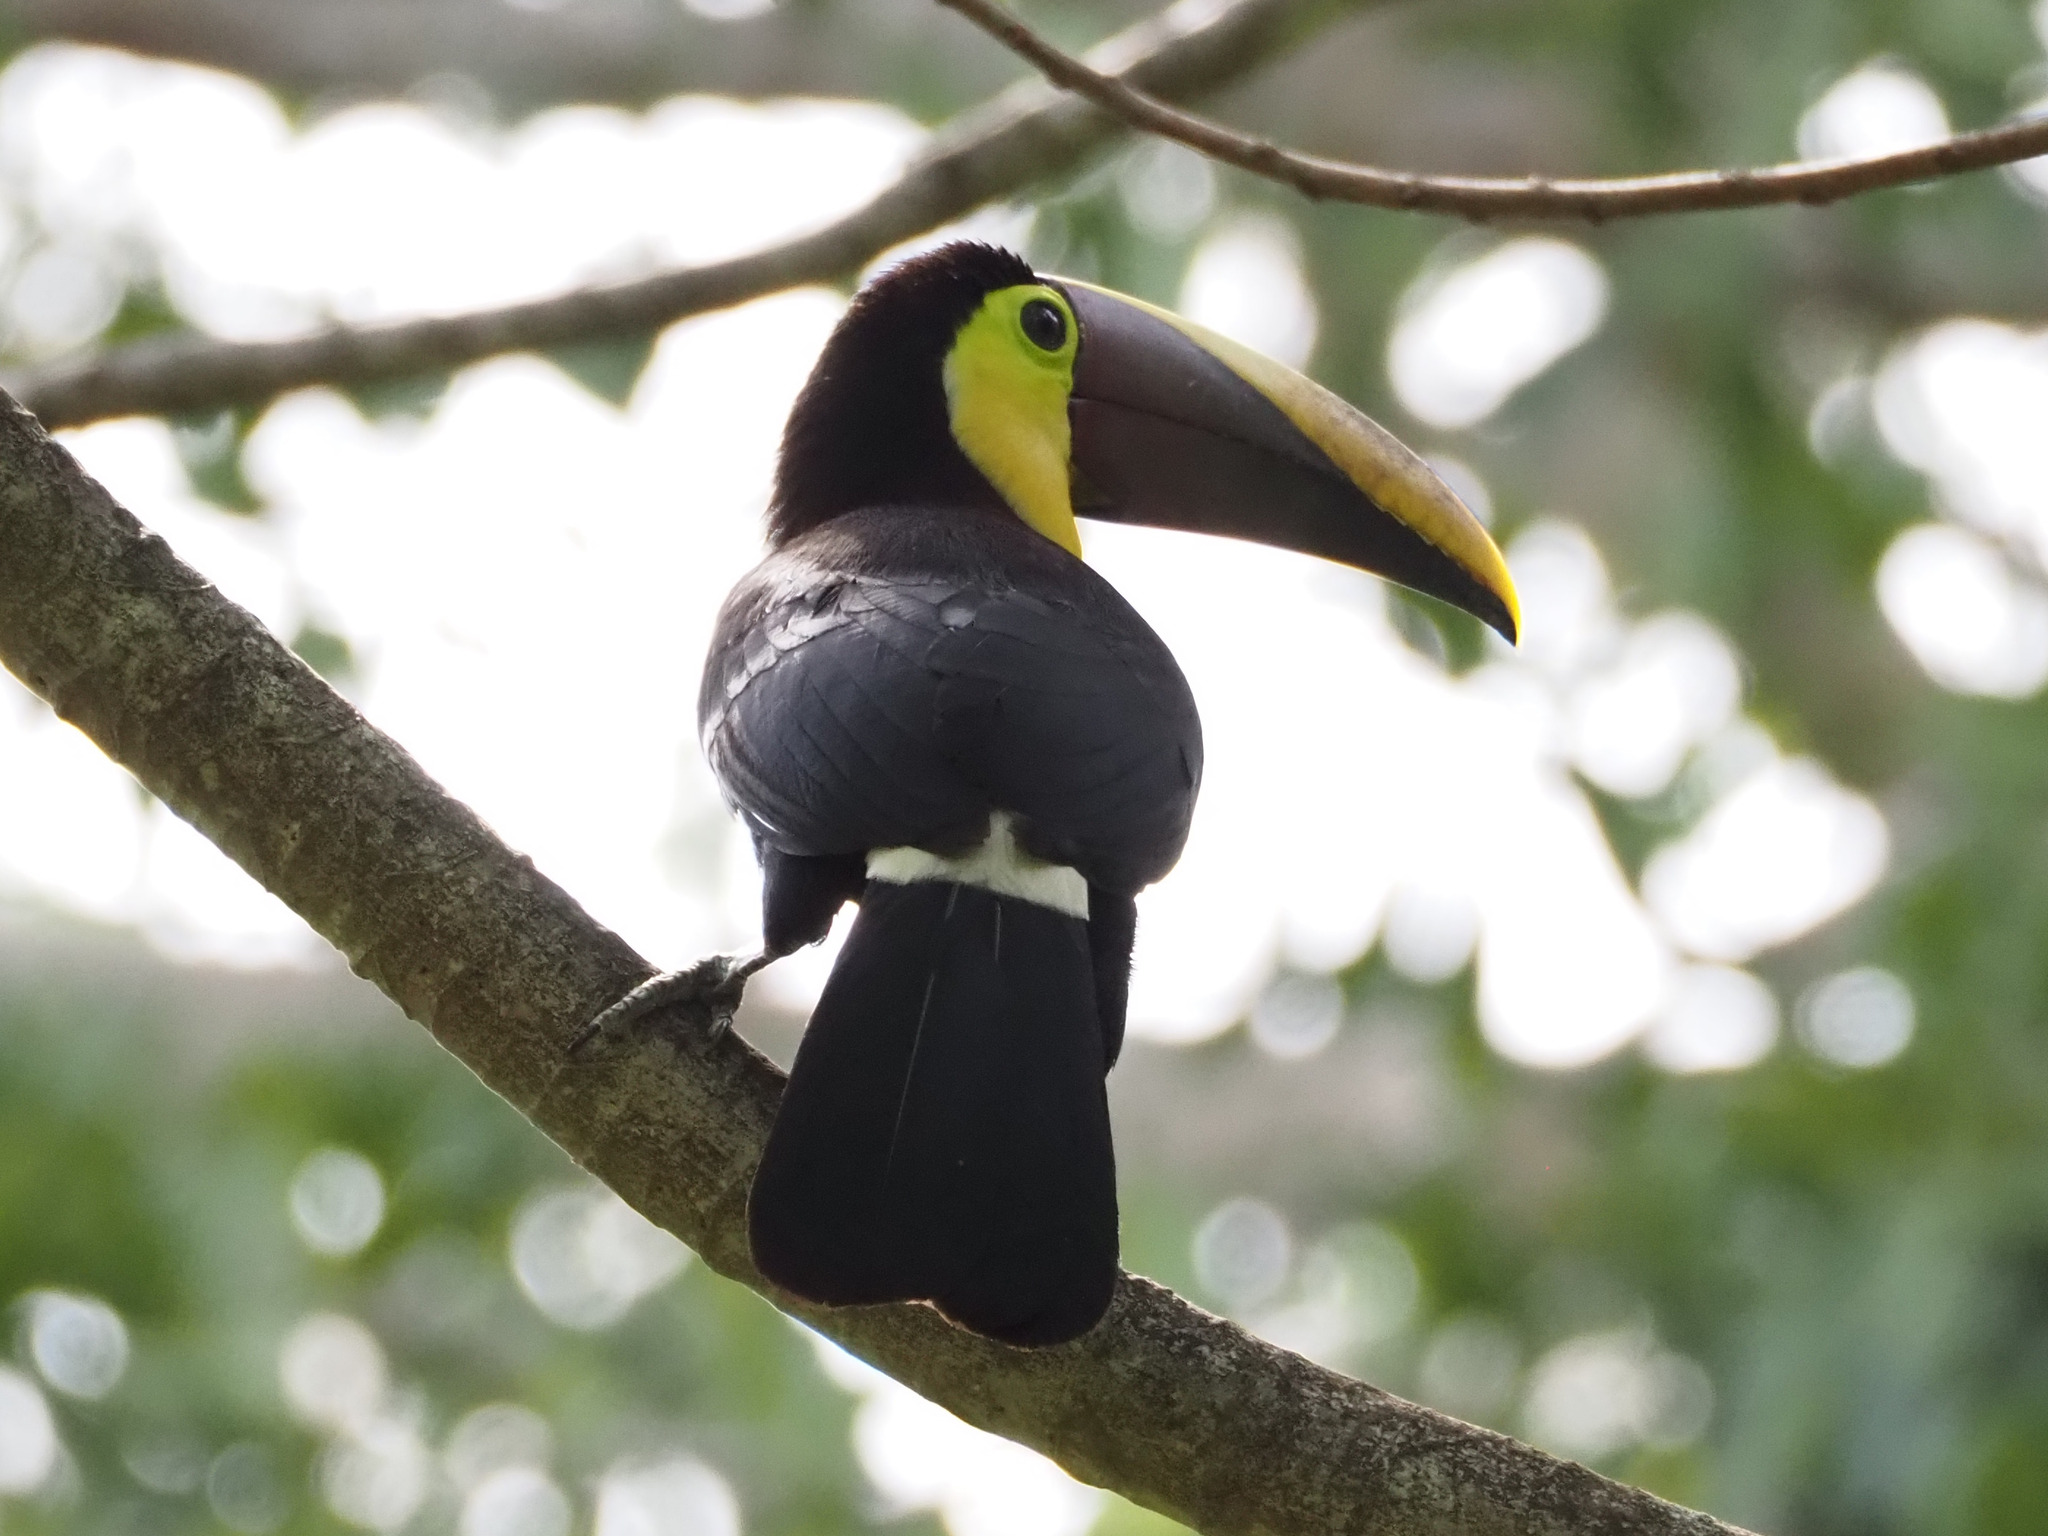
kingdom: Animalia
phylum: Chordata
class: Aves
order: Piciformes
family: Ramphastidae
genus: Ramphastos
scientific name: Ramphastos ambiguus
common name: Yellow-throated toucan
